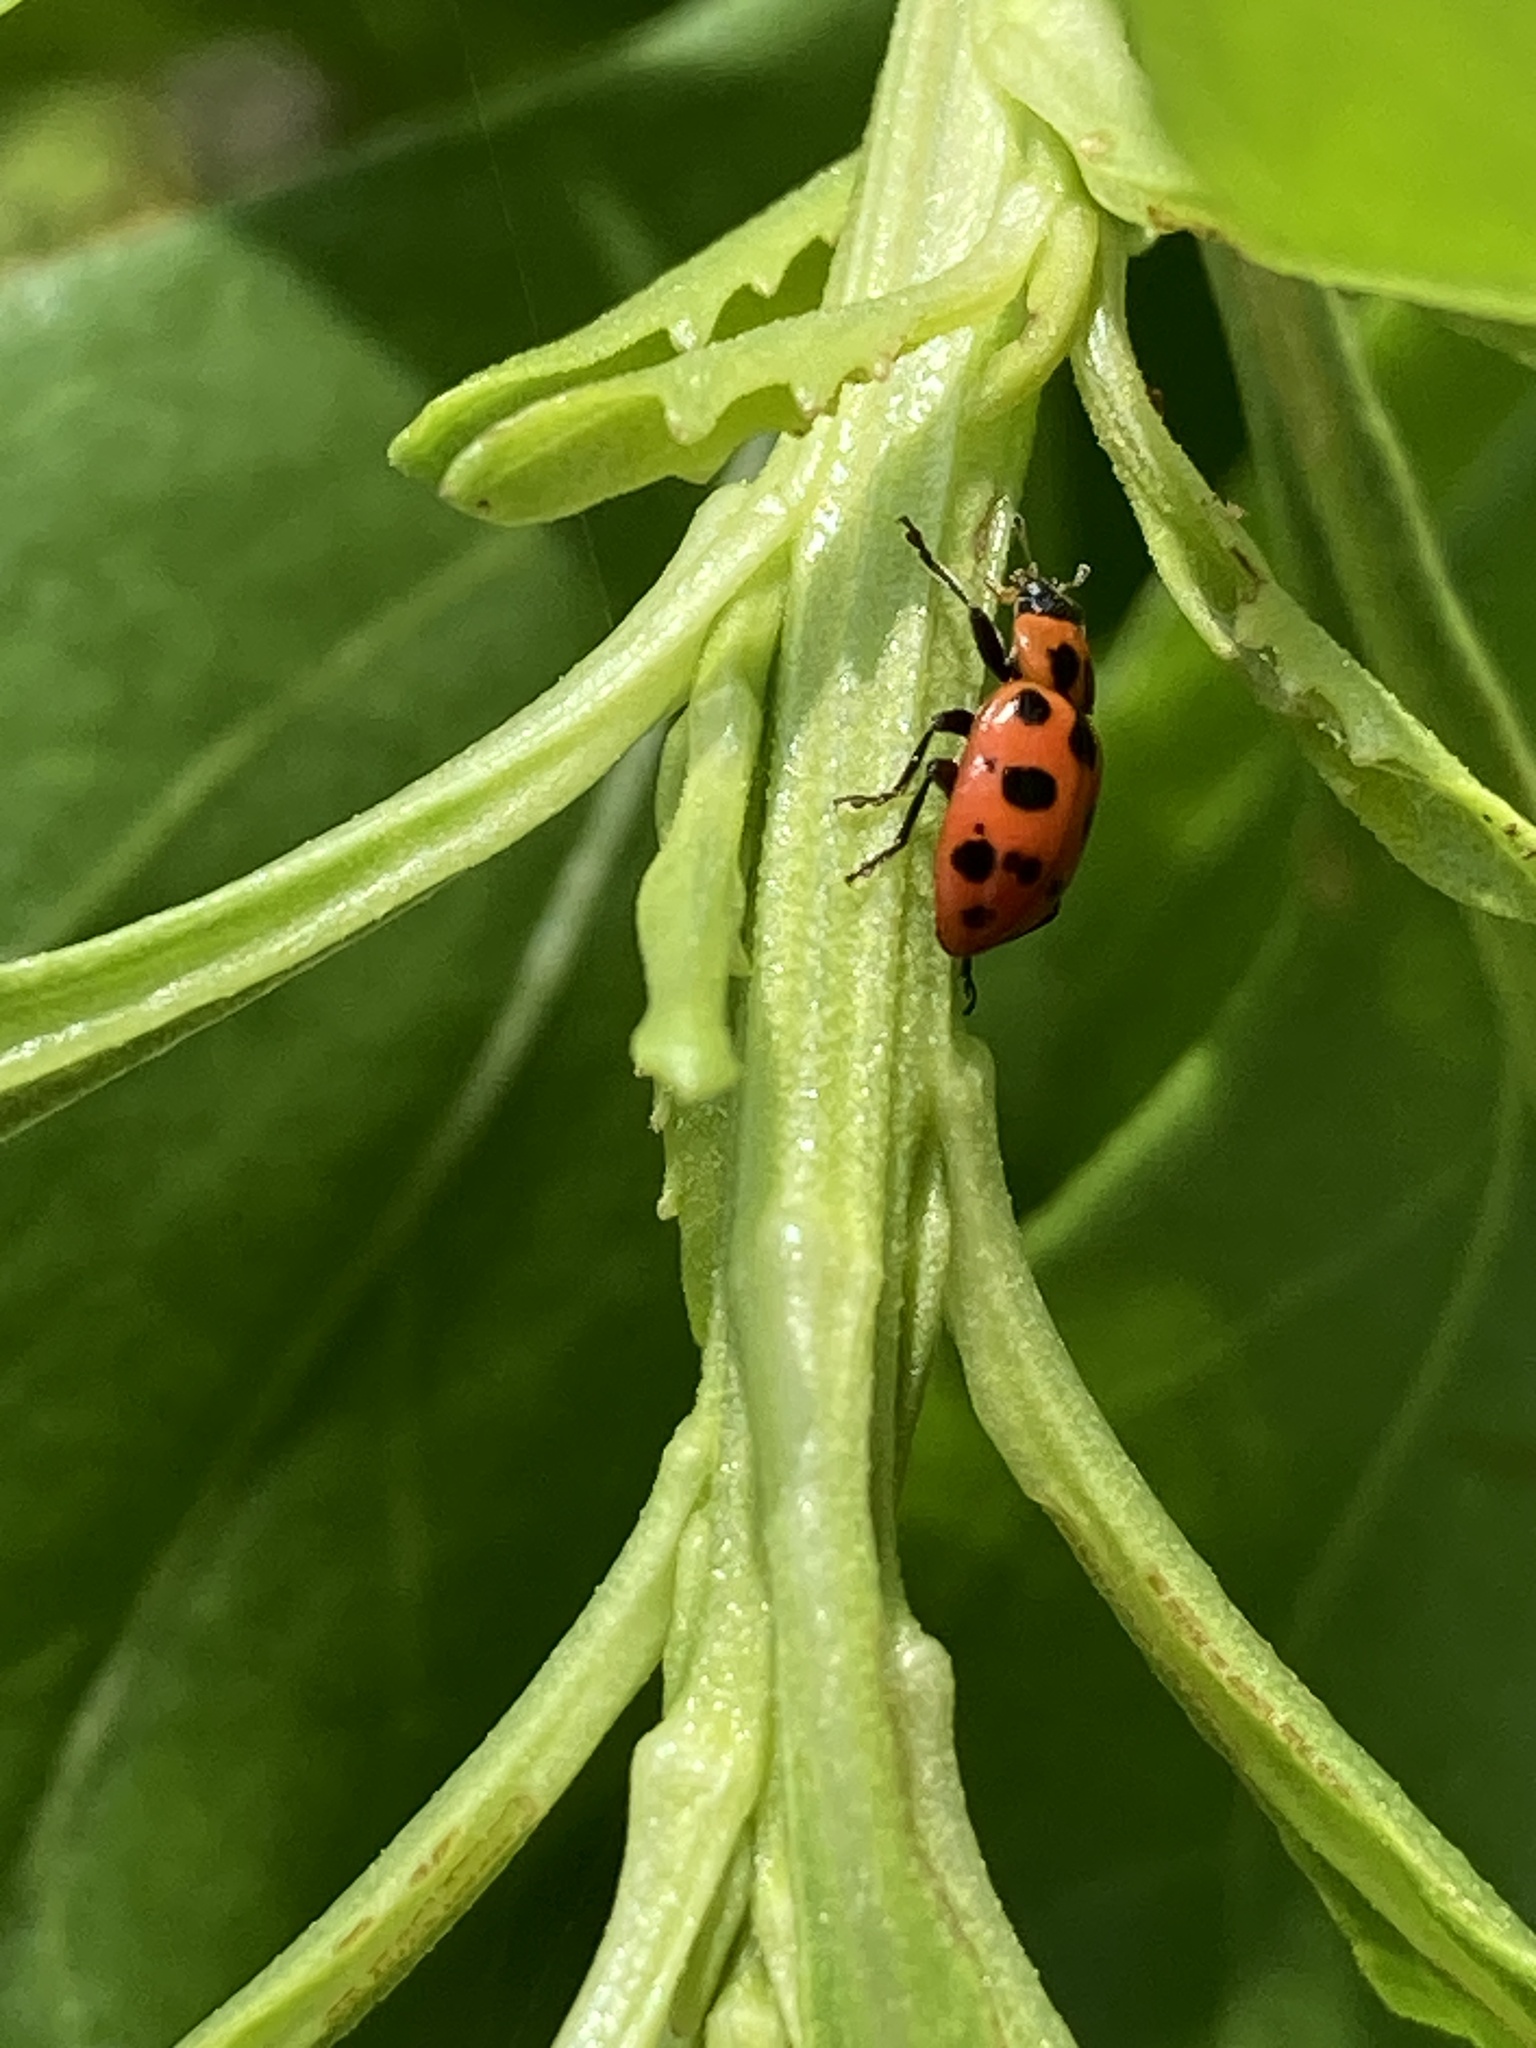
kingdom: Animalia
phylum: Arthropoda
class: Insecta
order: Coleoptera
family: Coccinellidae
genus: Coleomegilla
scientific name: Coleomegilla maculata
